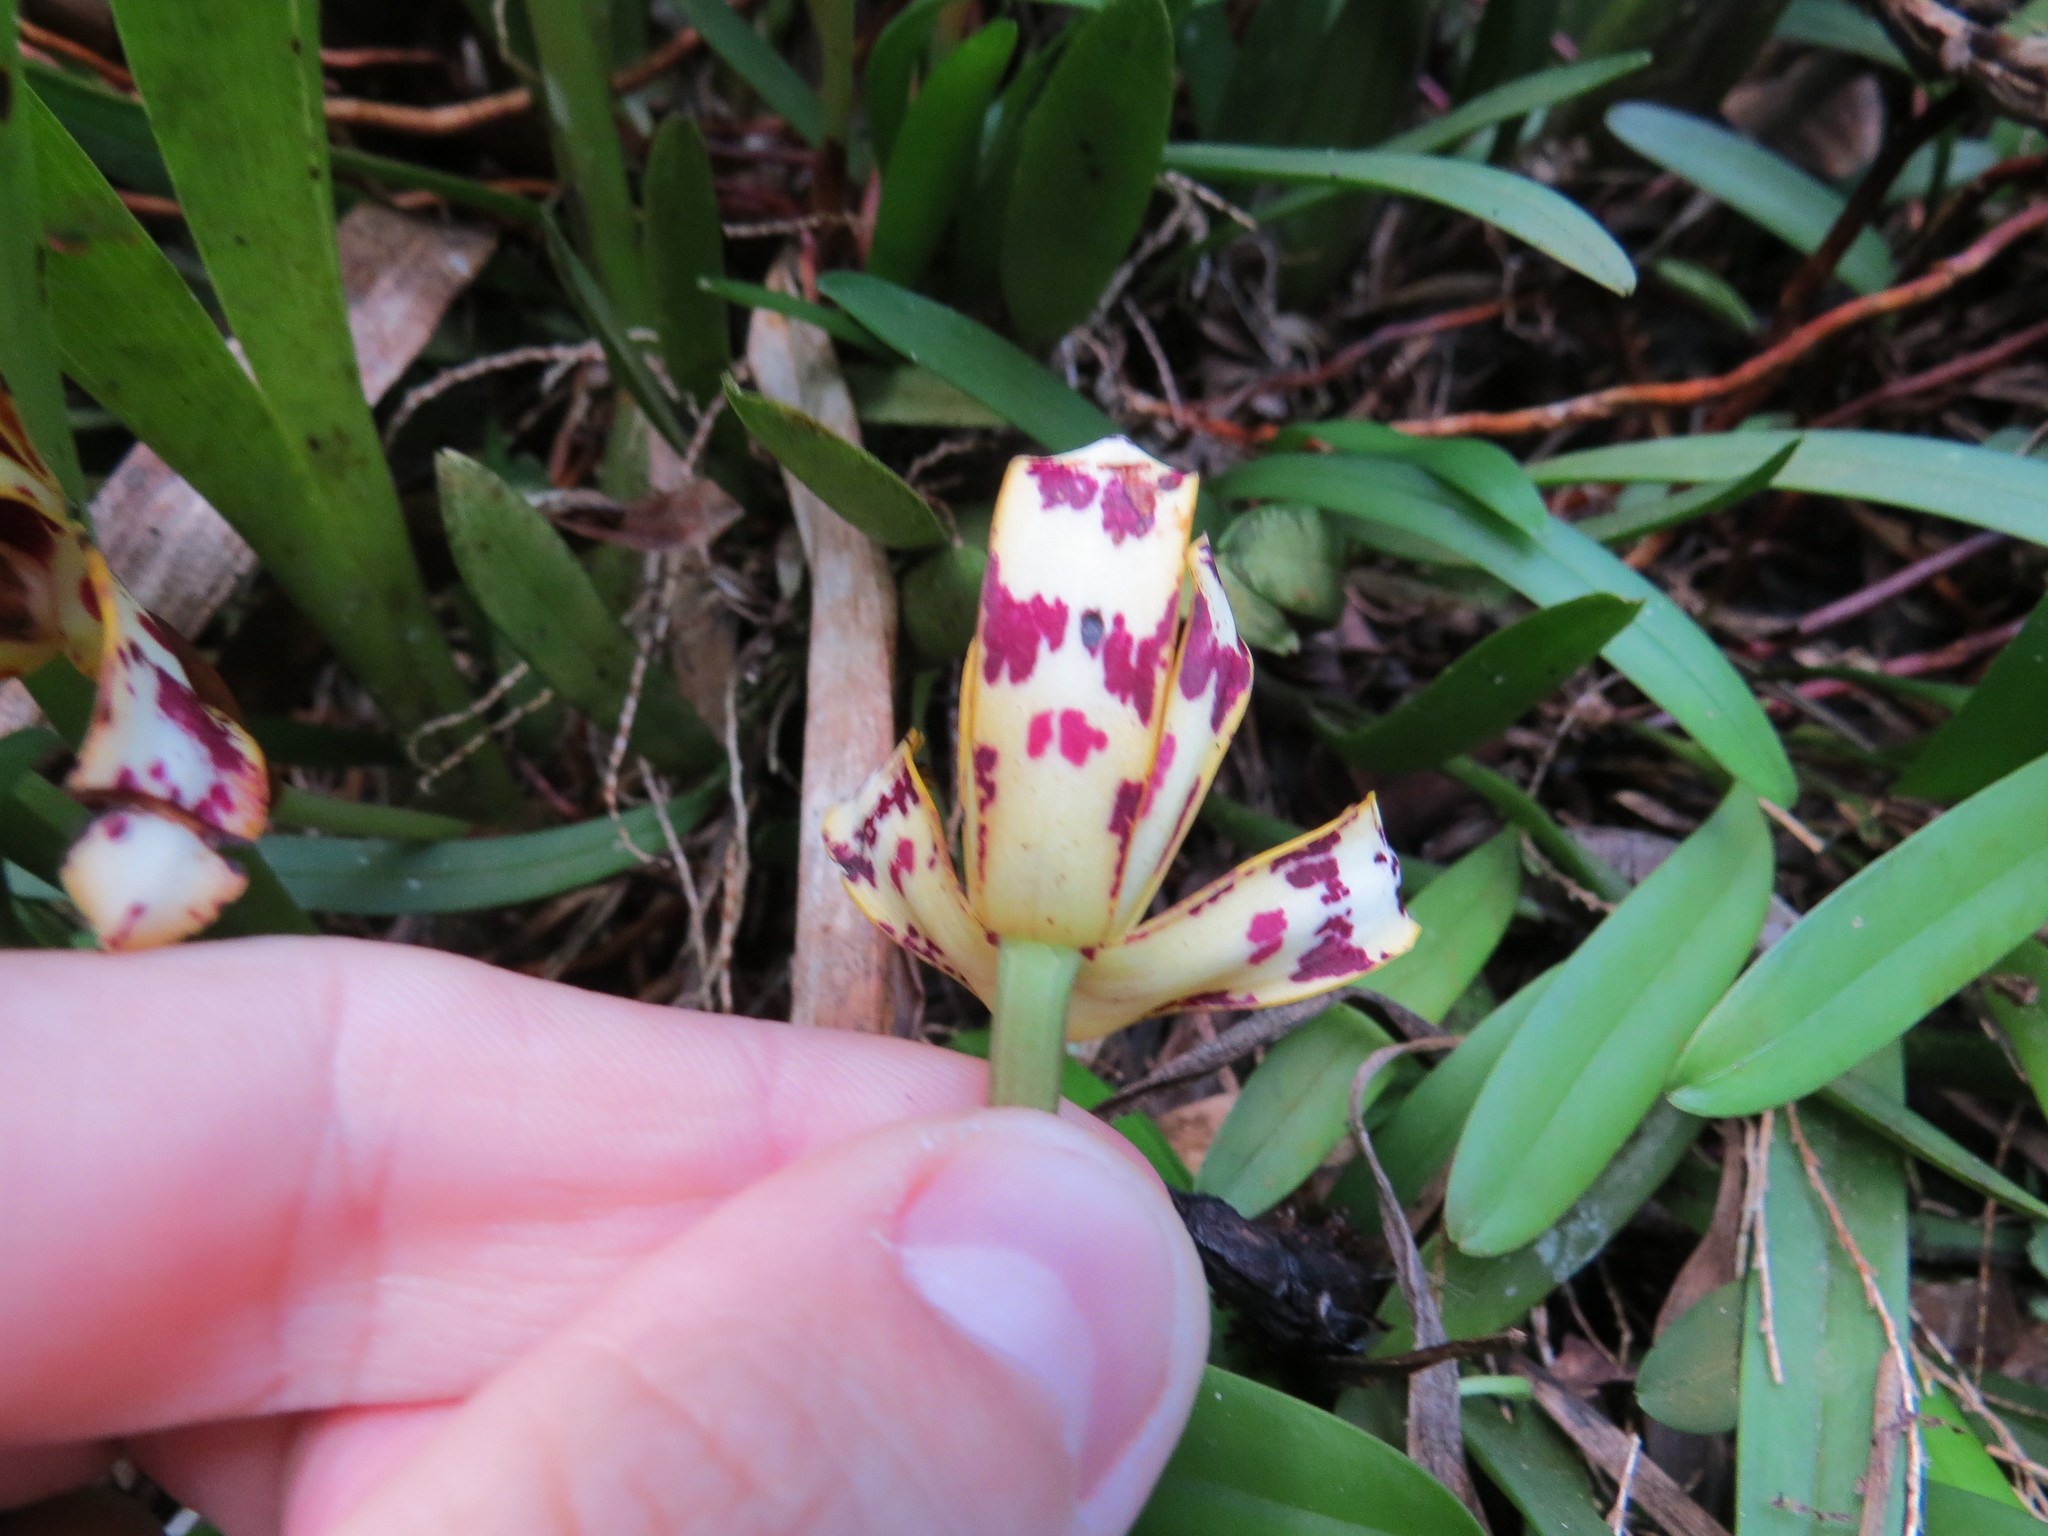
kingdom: Plantae
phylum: Tracheophyta
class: Liliopsida
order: Asparagales
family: Orchidaceae
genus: Maxillaria
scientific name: Maxillaria picta
